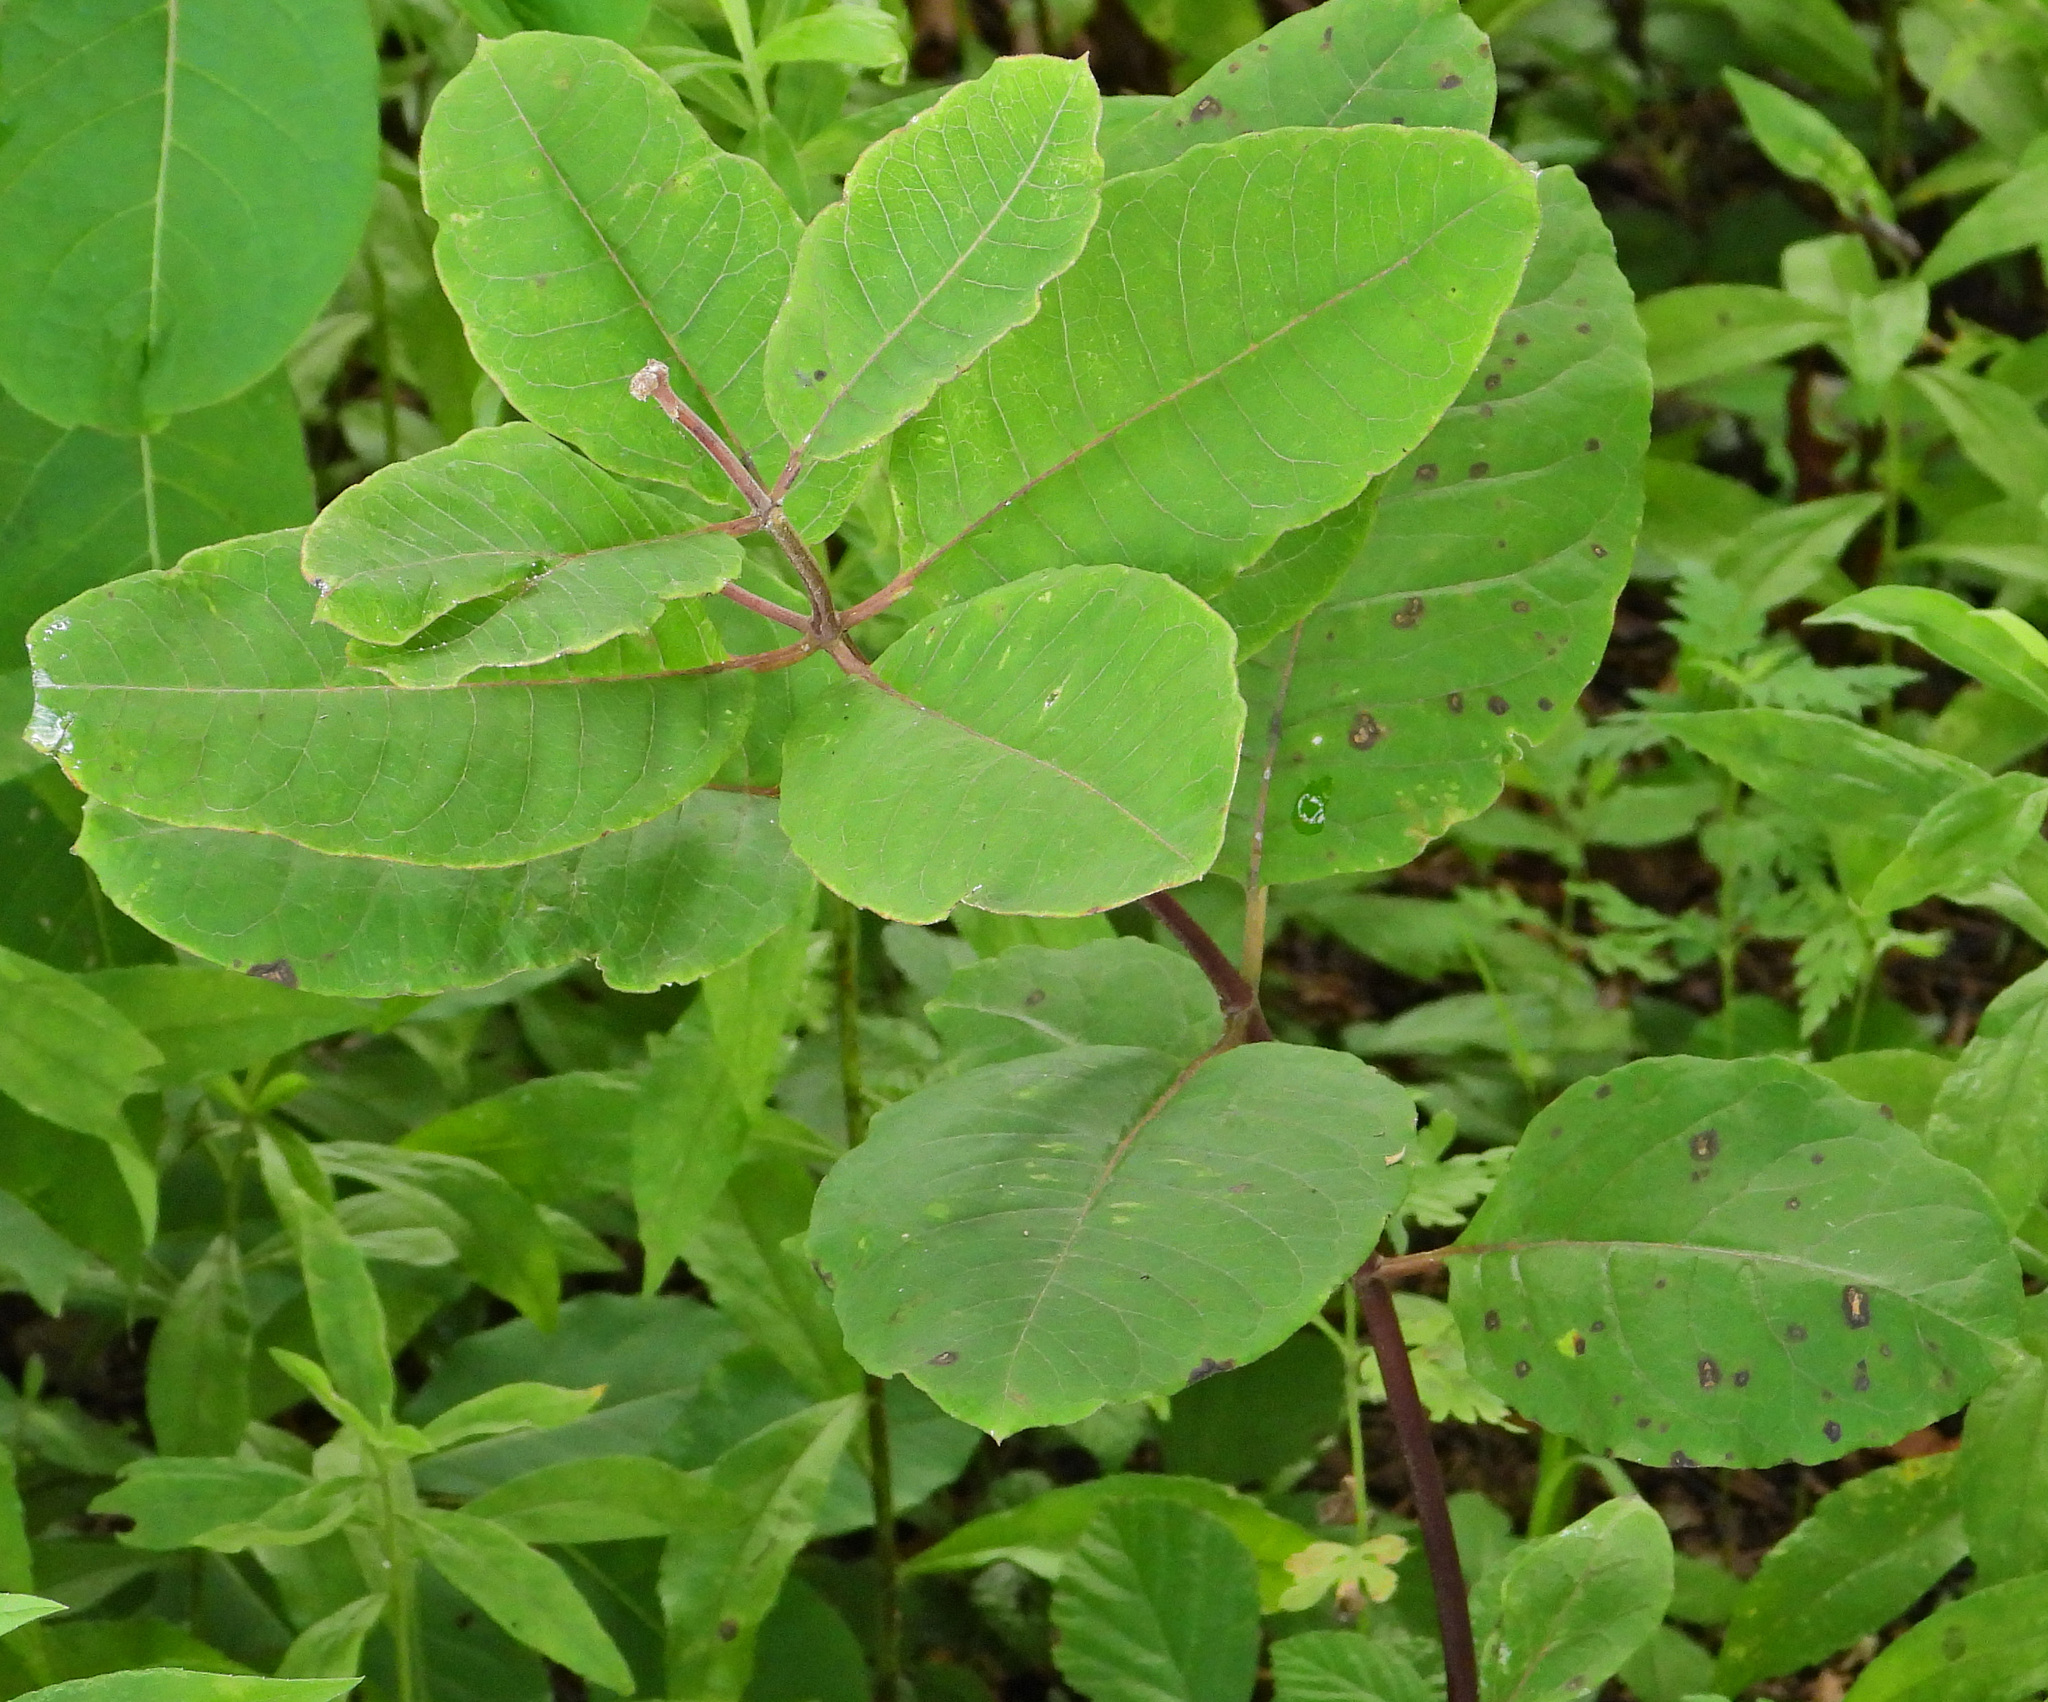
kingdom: Plantae
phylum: Tracheophyta
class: Magnoliopsida
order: Gentianales
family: Apocynaceae
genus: Asclepias
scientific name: Asclepias variegata
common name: Variegated milkweed
